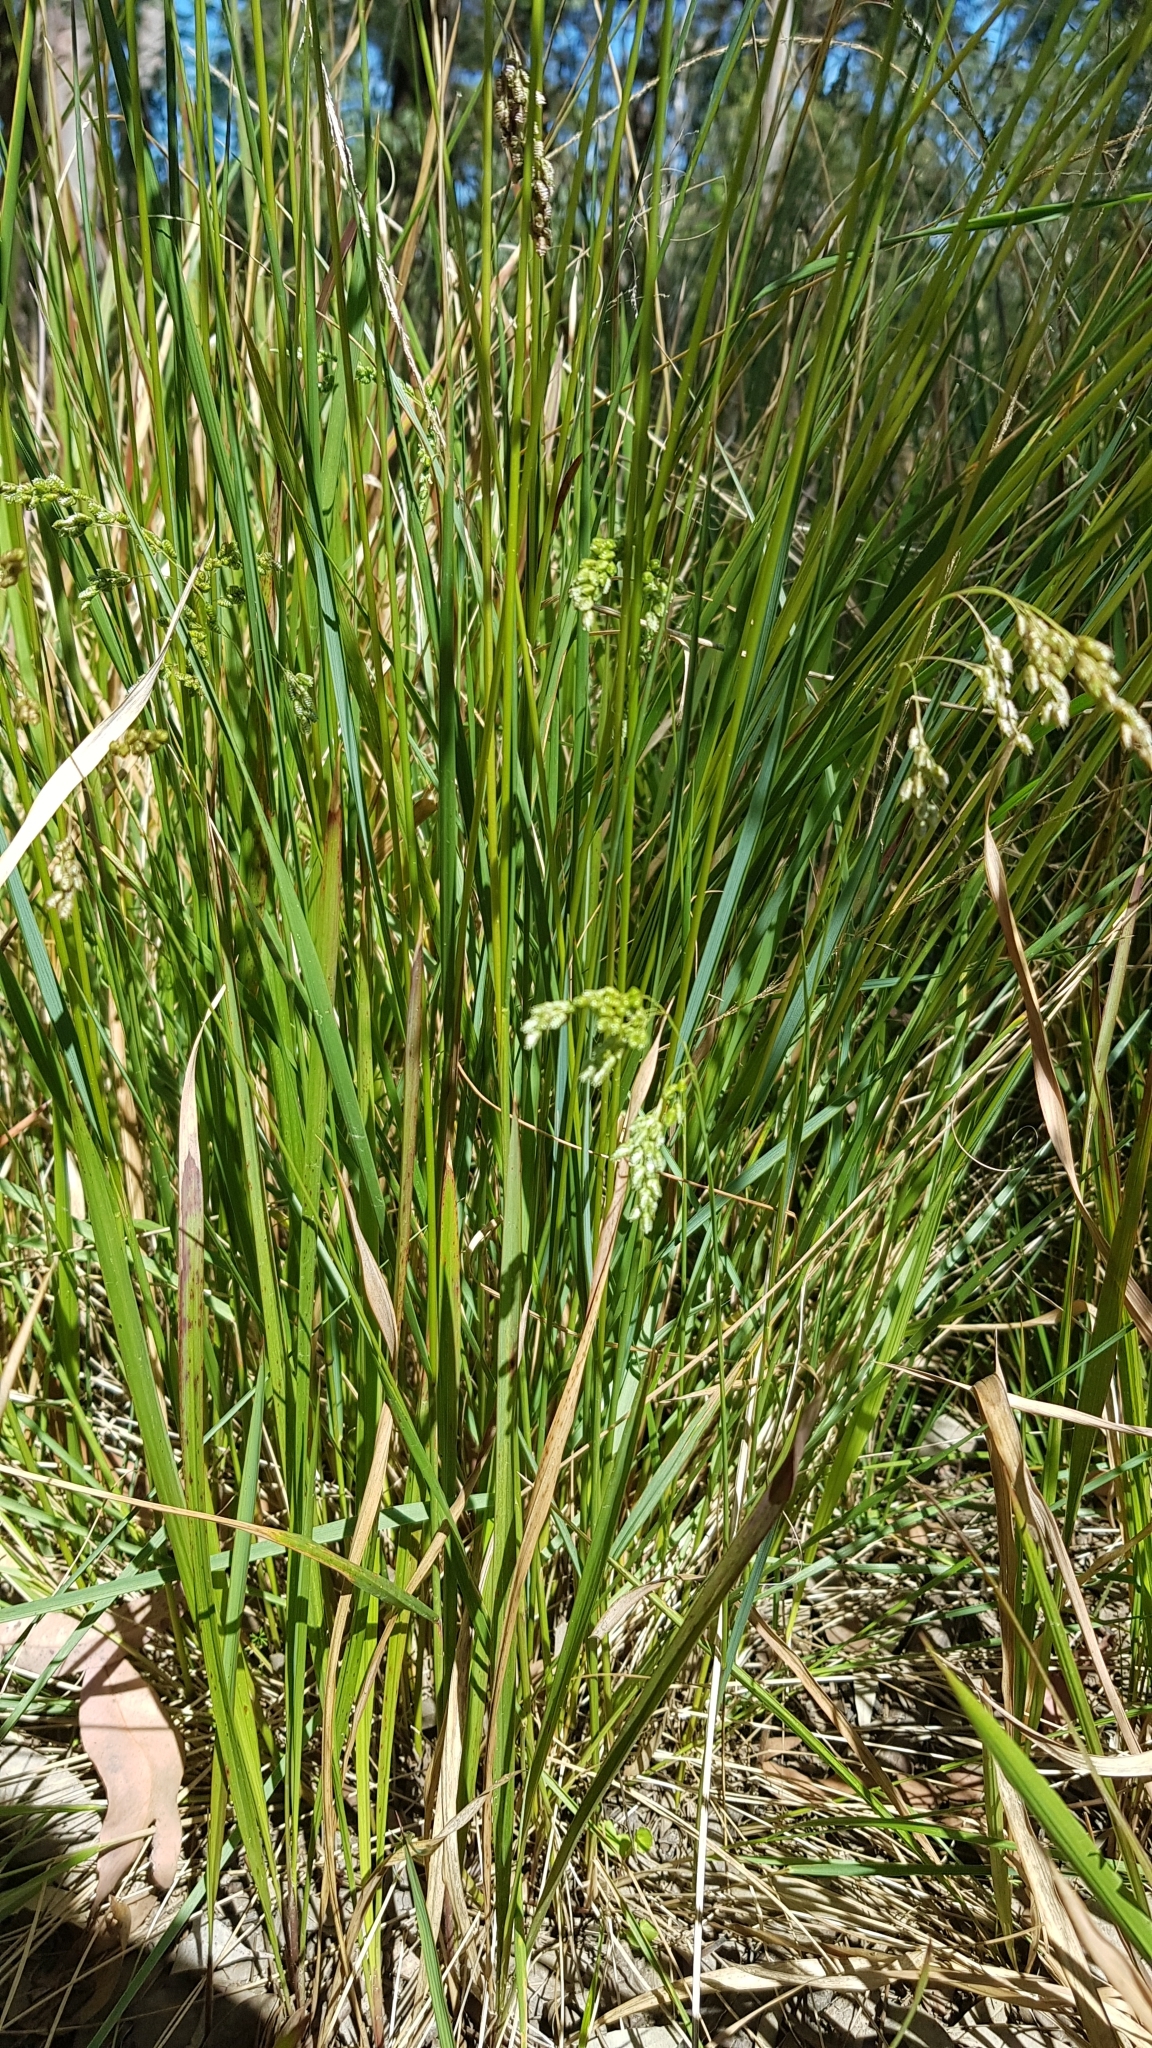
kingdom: Plantae
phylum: Tracheophyta
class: Liliopsida
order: Poales
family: Poaceae
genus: Chascolytrum
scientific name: Chascolytrum subaristatum
